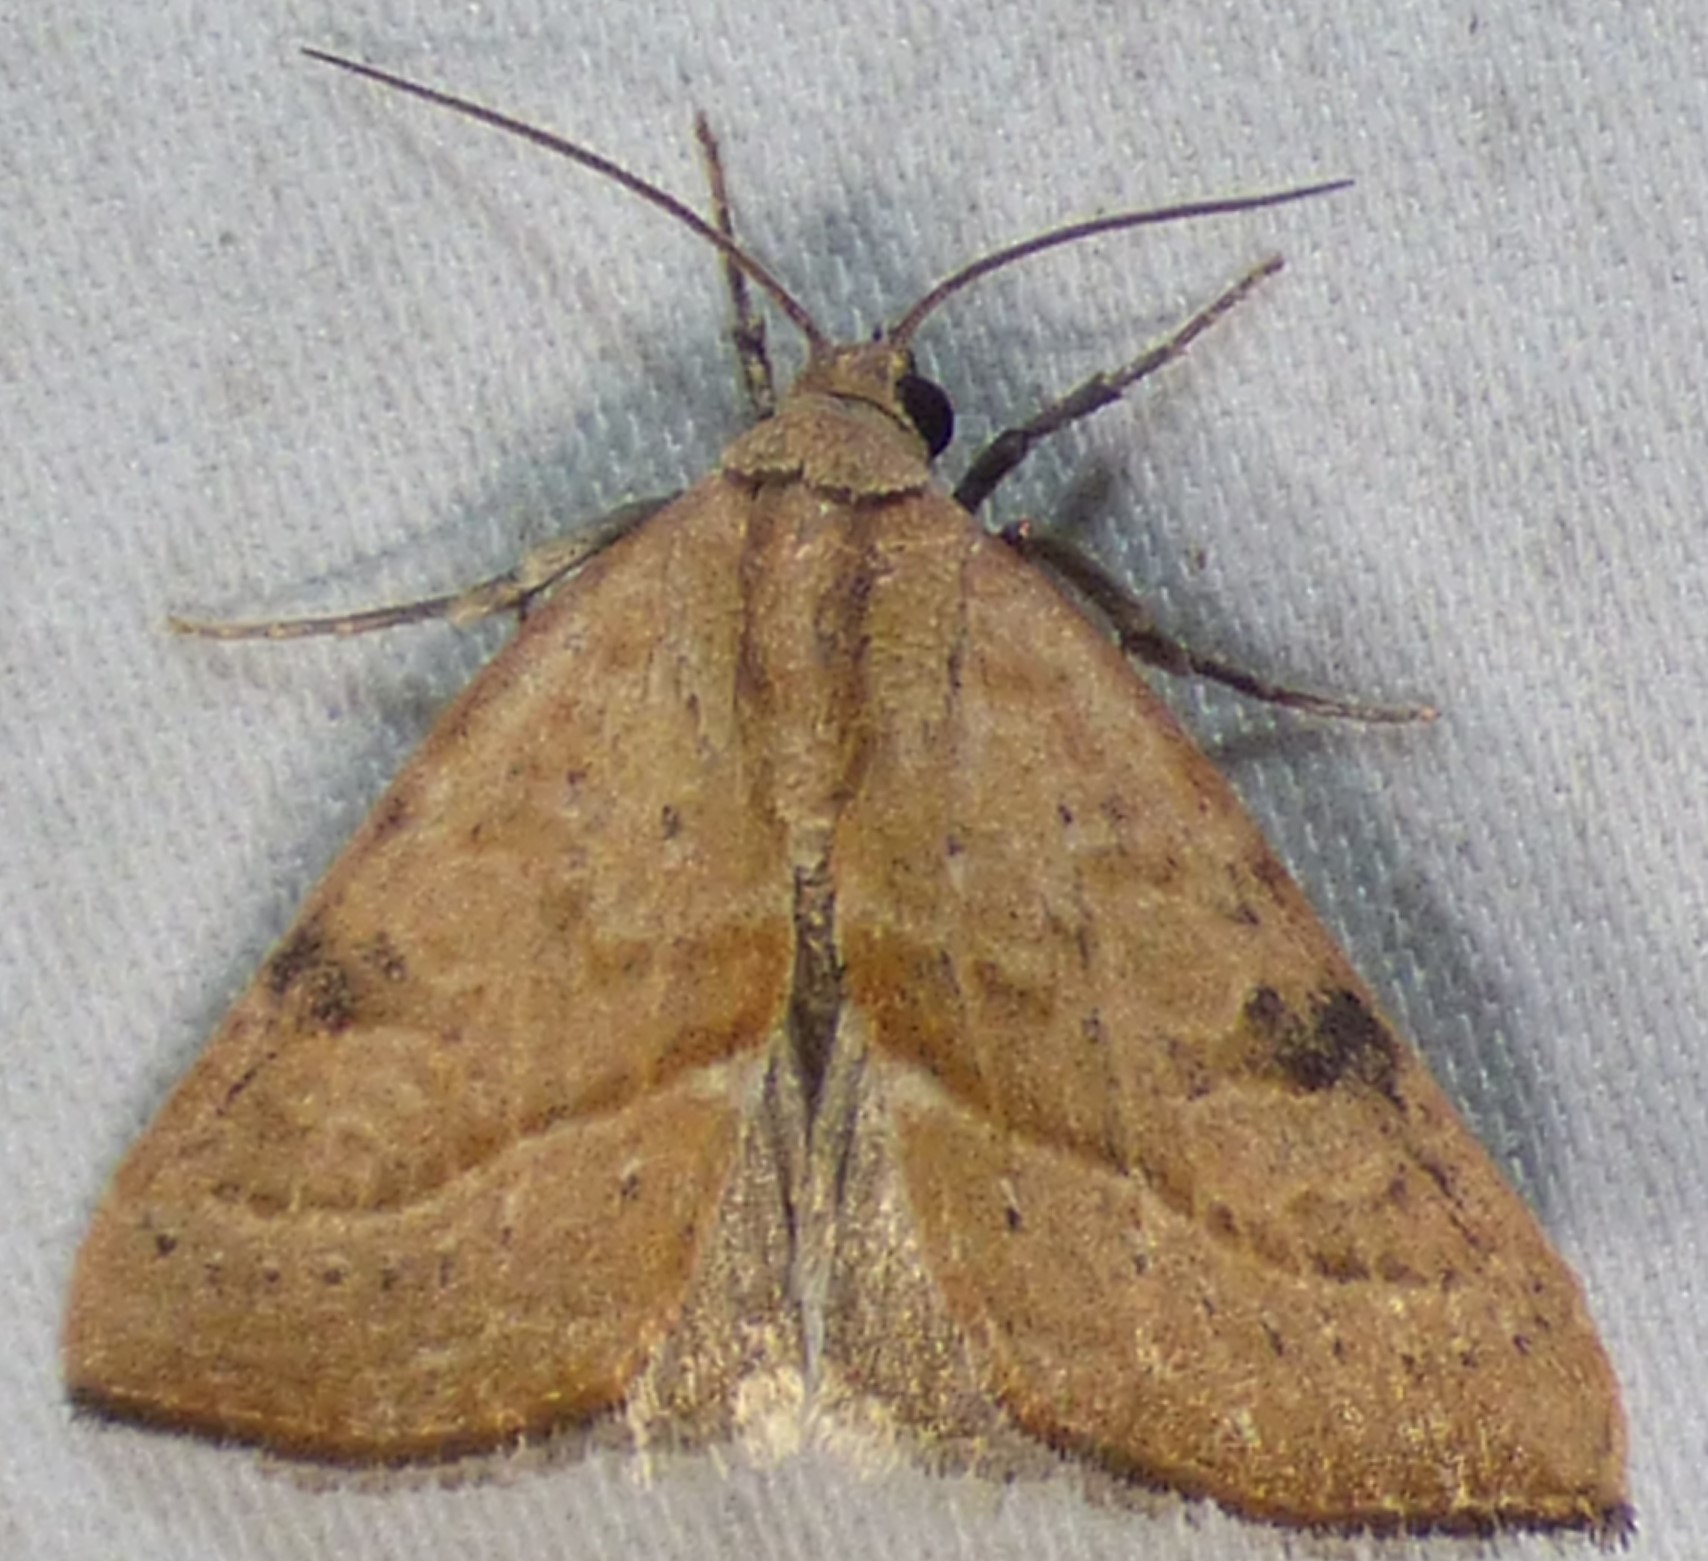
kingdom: Animalia
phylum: Arthropoda
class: Insecta
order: Lepidoptera
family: Noctuidae
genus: Galgula
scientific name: Galgula partita
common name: Wedgeling
